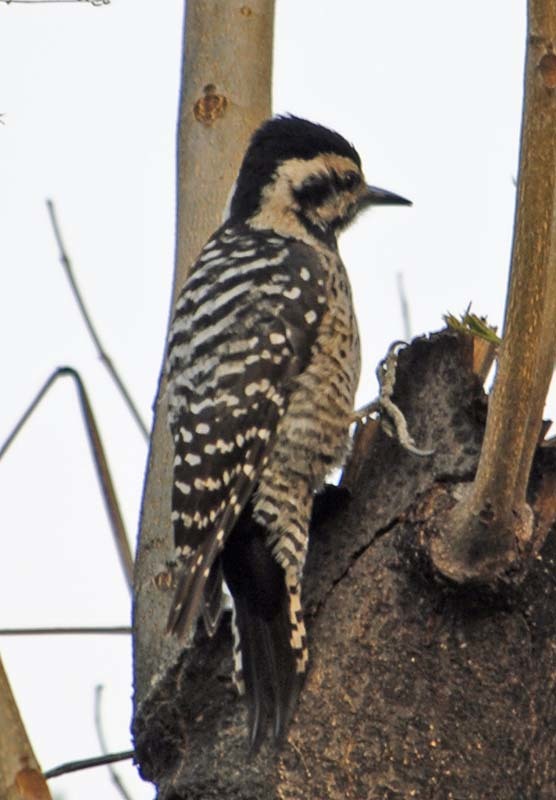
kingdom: Animalia
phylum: Chordata
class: Aves
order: Piciformes
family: Picidae
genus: Dryobates
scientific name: Dryobates scalaris
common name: Ladder-backed woodpecker
